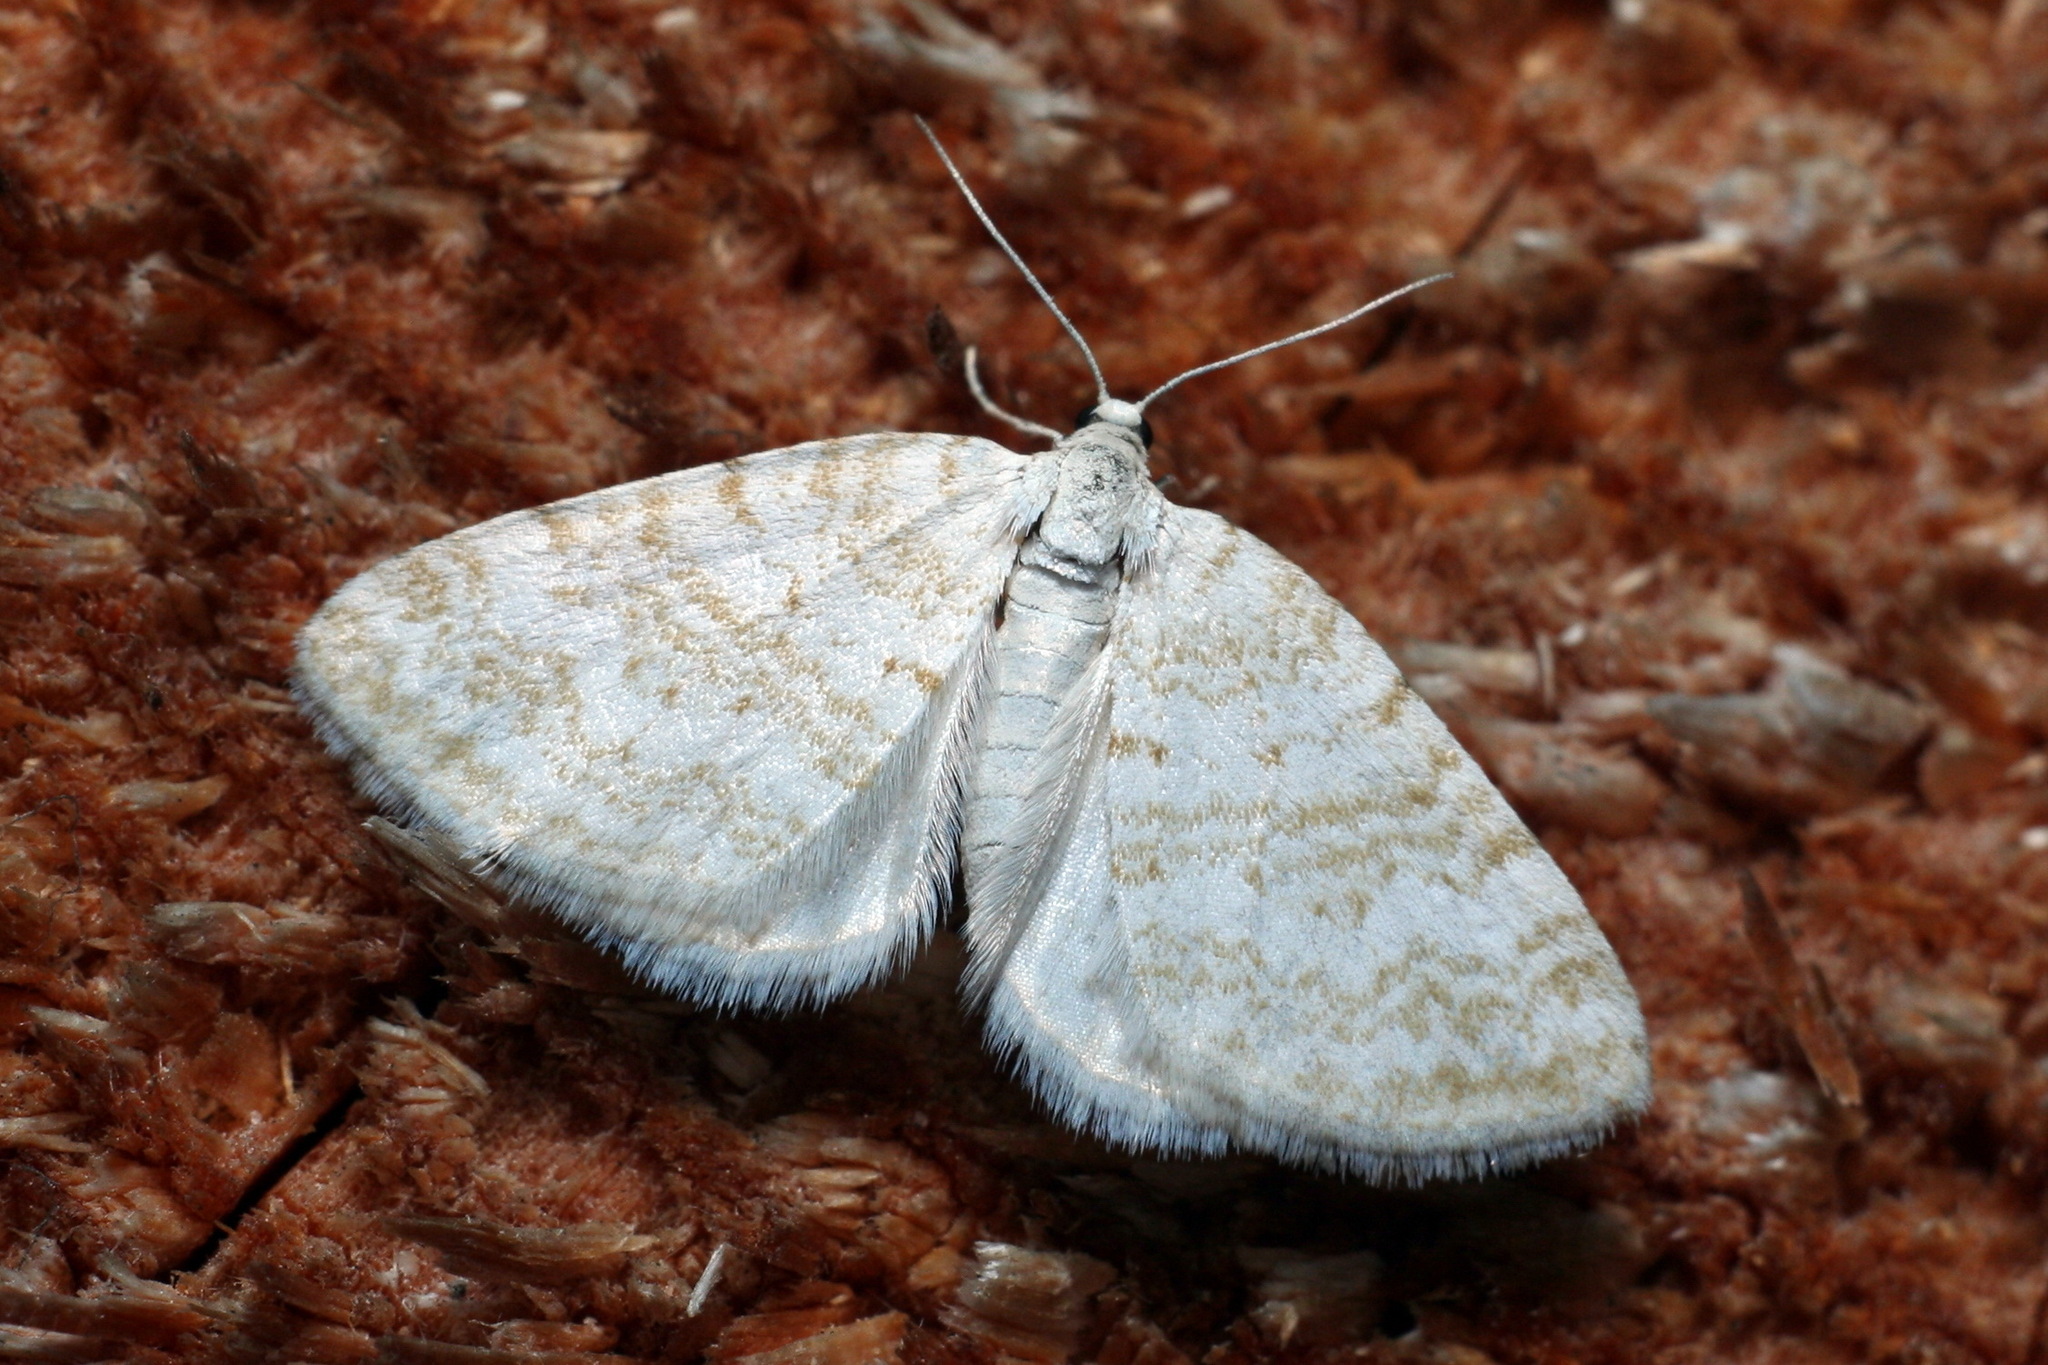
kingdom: Animalia
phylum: Arthropoda
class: Insecta
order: Lepidoptera
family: Geometridae
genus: Perizoma
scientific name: Perizoma albulata
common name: Grass rivulet
